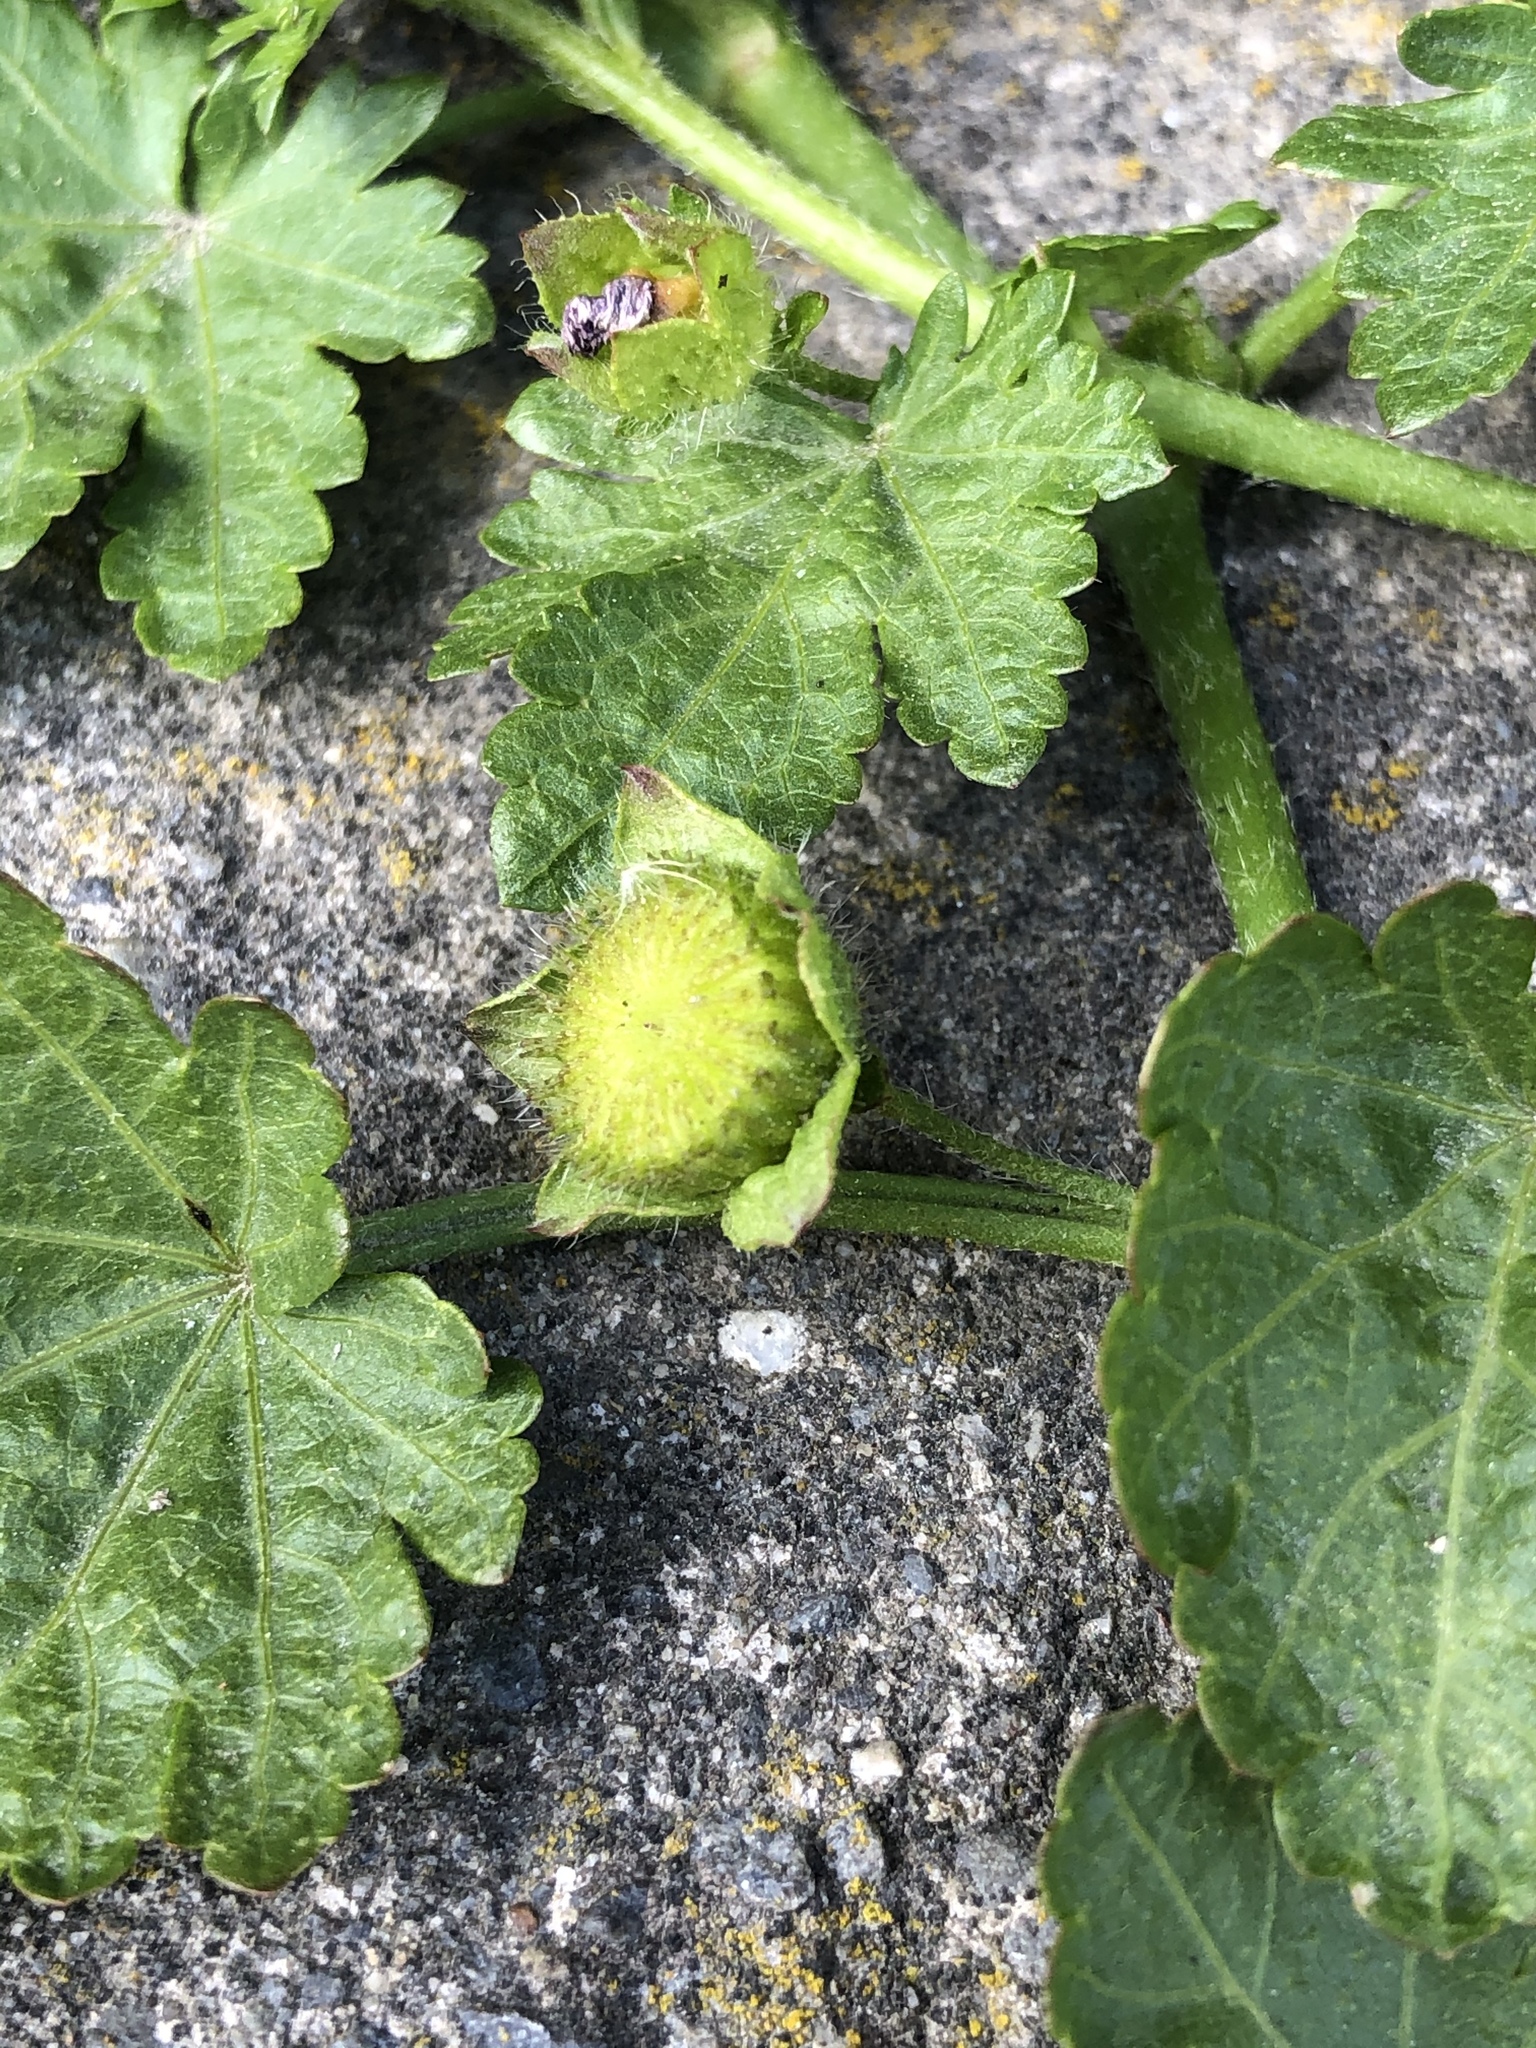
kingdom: Plantae
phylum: Tracheophyta
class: Magnoliopsida
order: Malvales
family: Malvaceae
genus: Modiola
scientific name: Modiola caroliniana
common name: Carolina bristlemallow
